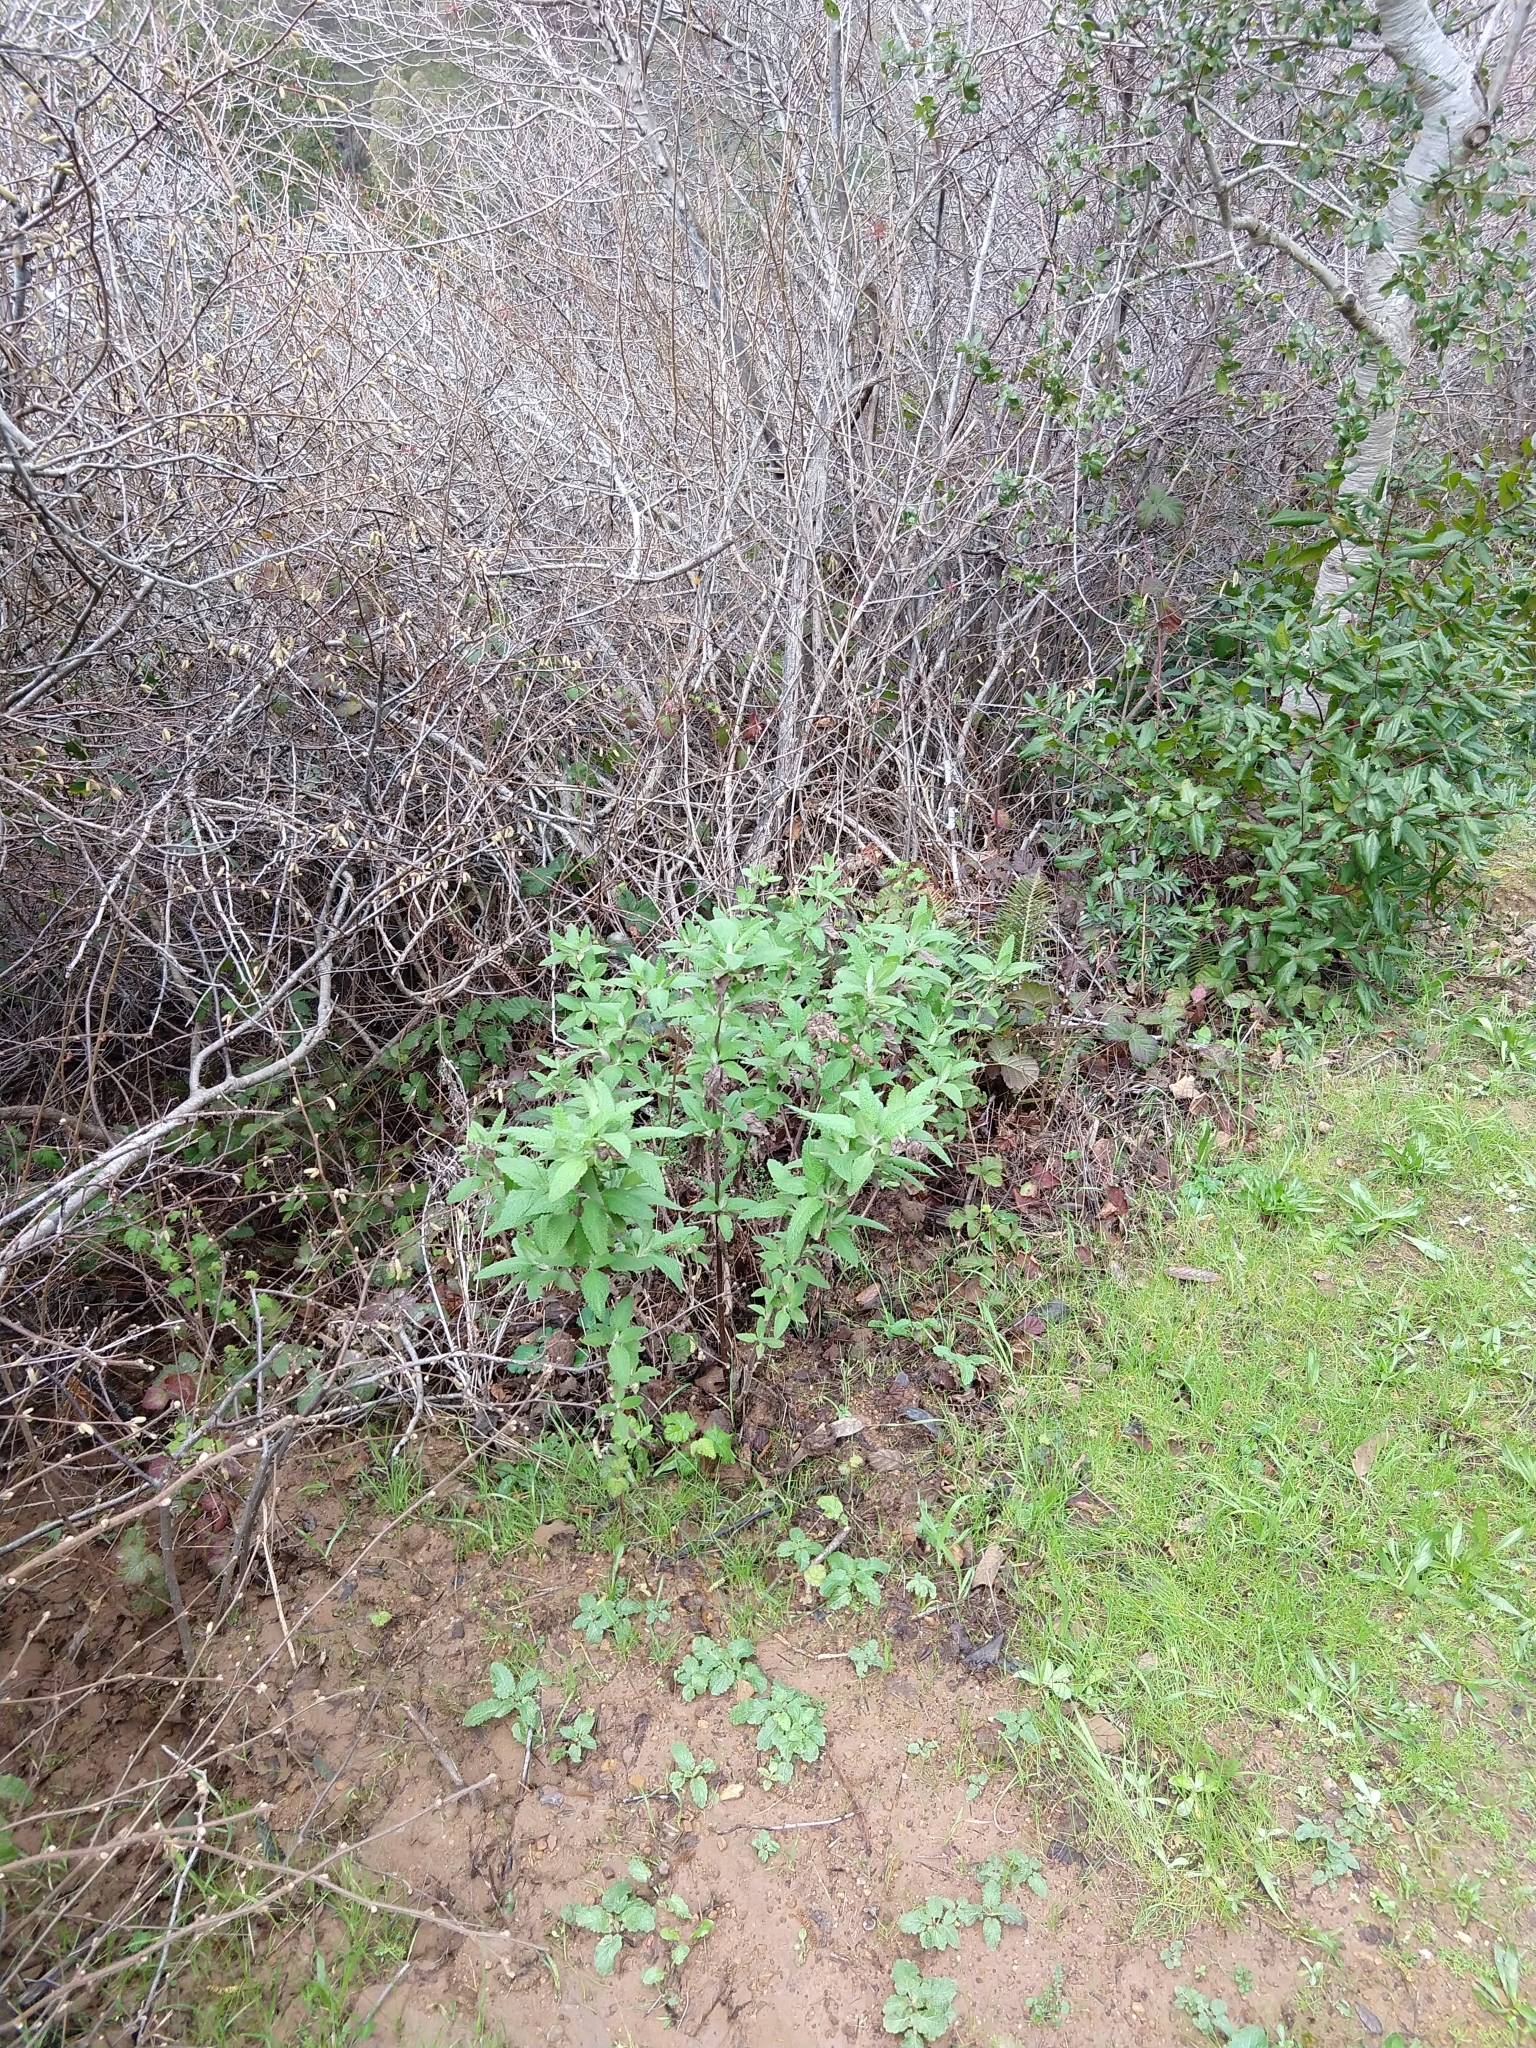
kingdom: Plantae
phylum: Tracheophyta
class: Magnoliopsida
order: Lamiales
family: Lamiaceae
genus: Lepechinia
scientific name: Lepechinia calycina
